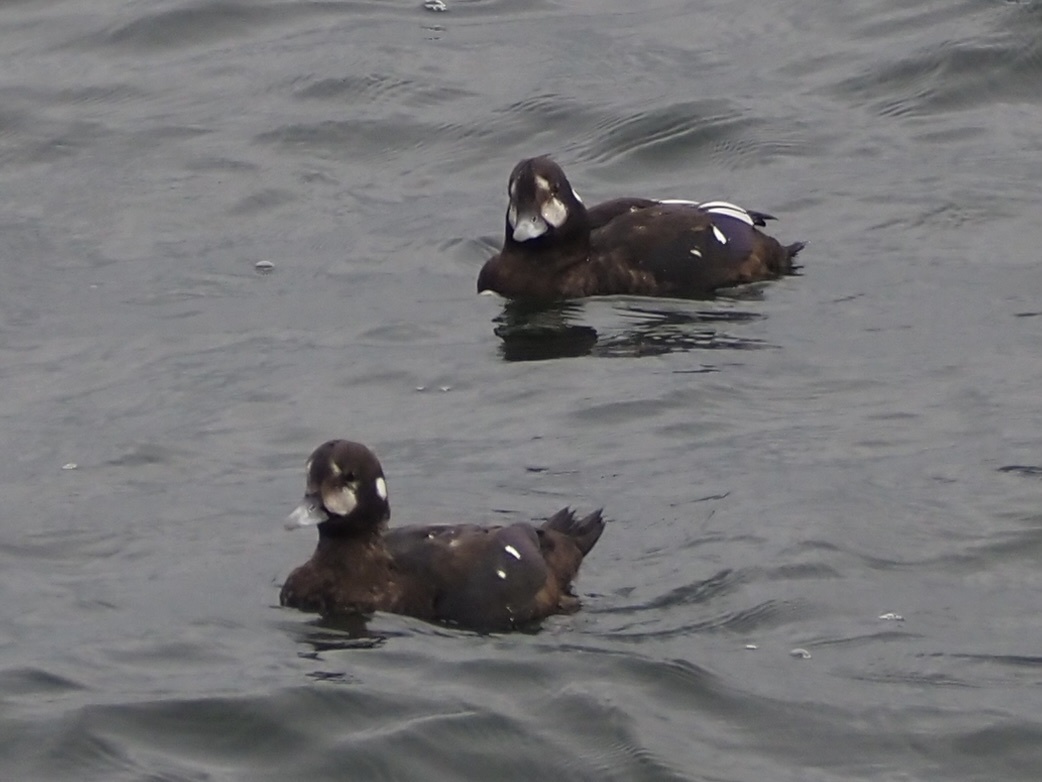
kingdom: Animalia
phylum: Chordata
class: Aves
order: Anseriformes
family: Anatidae
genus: Histrionicus
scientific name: Histrionicus histrionicus
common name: Harlequin duck
